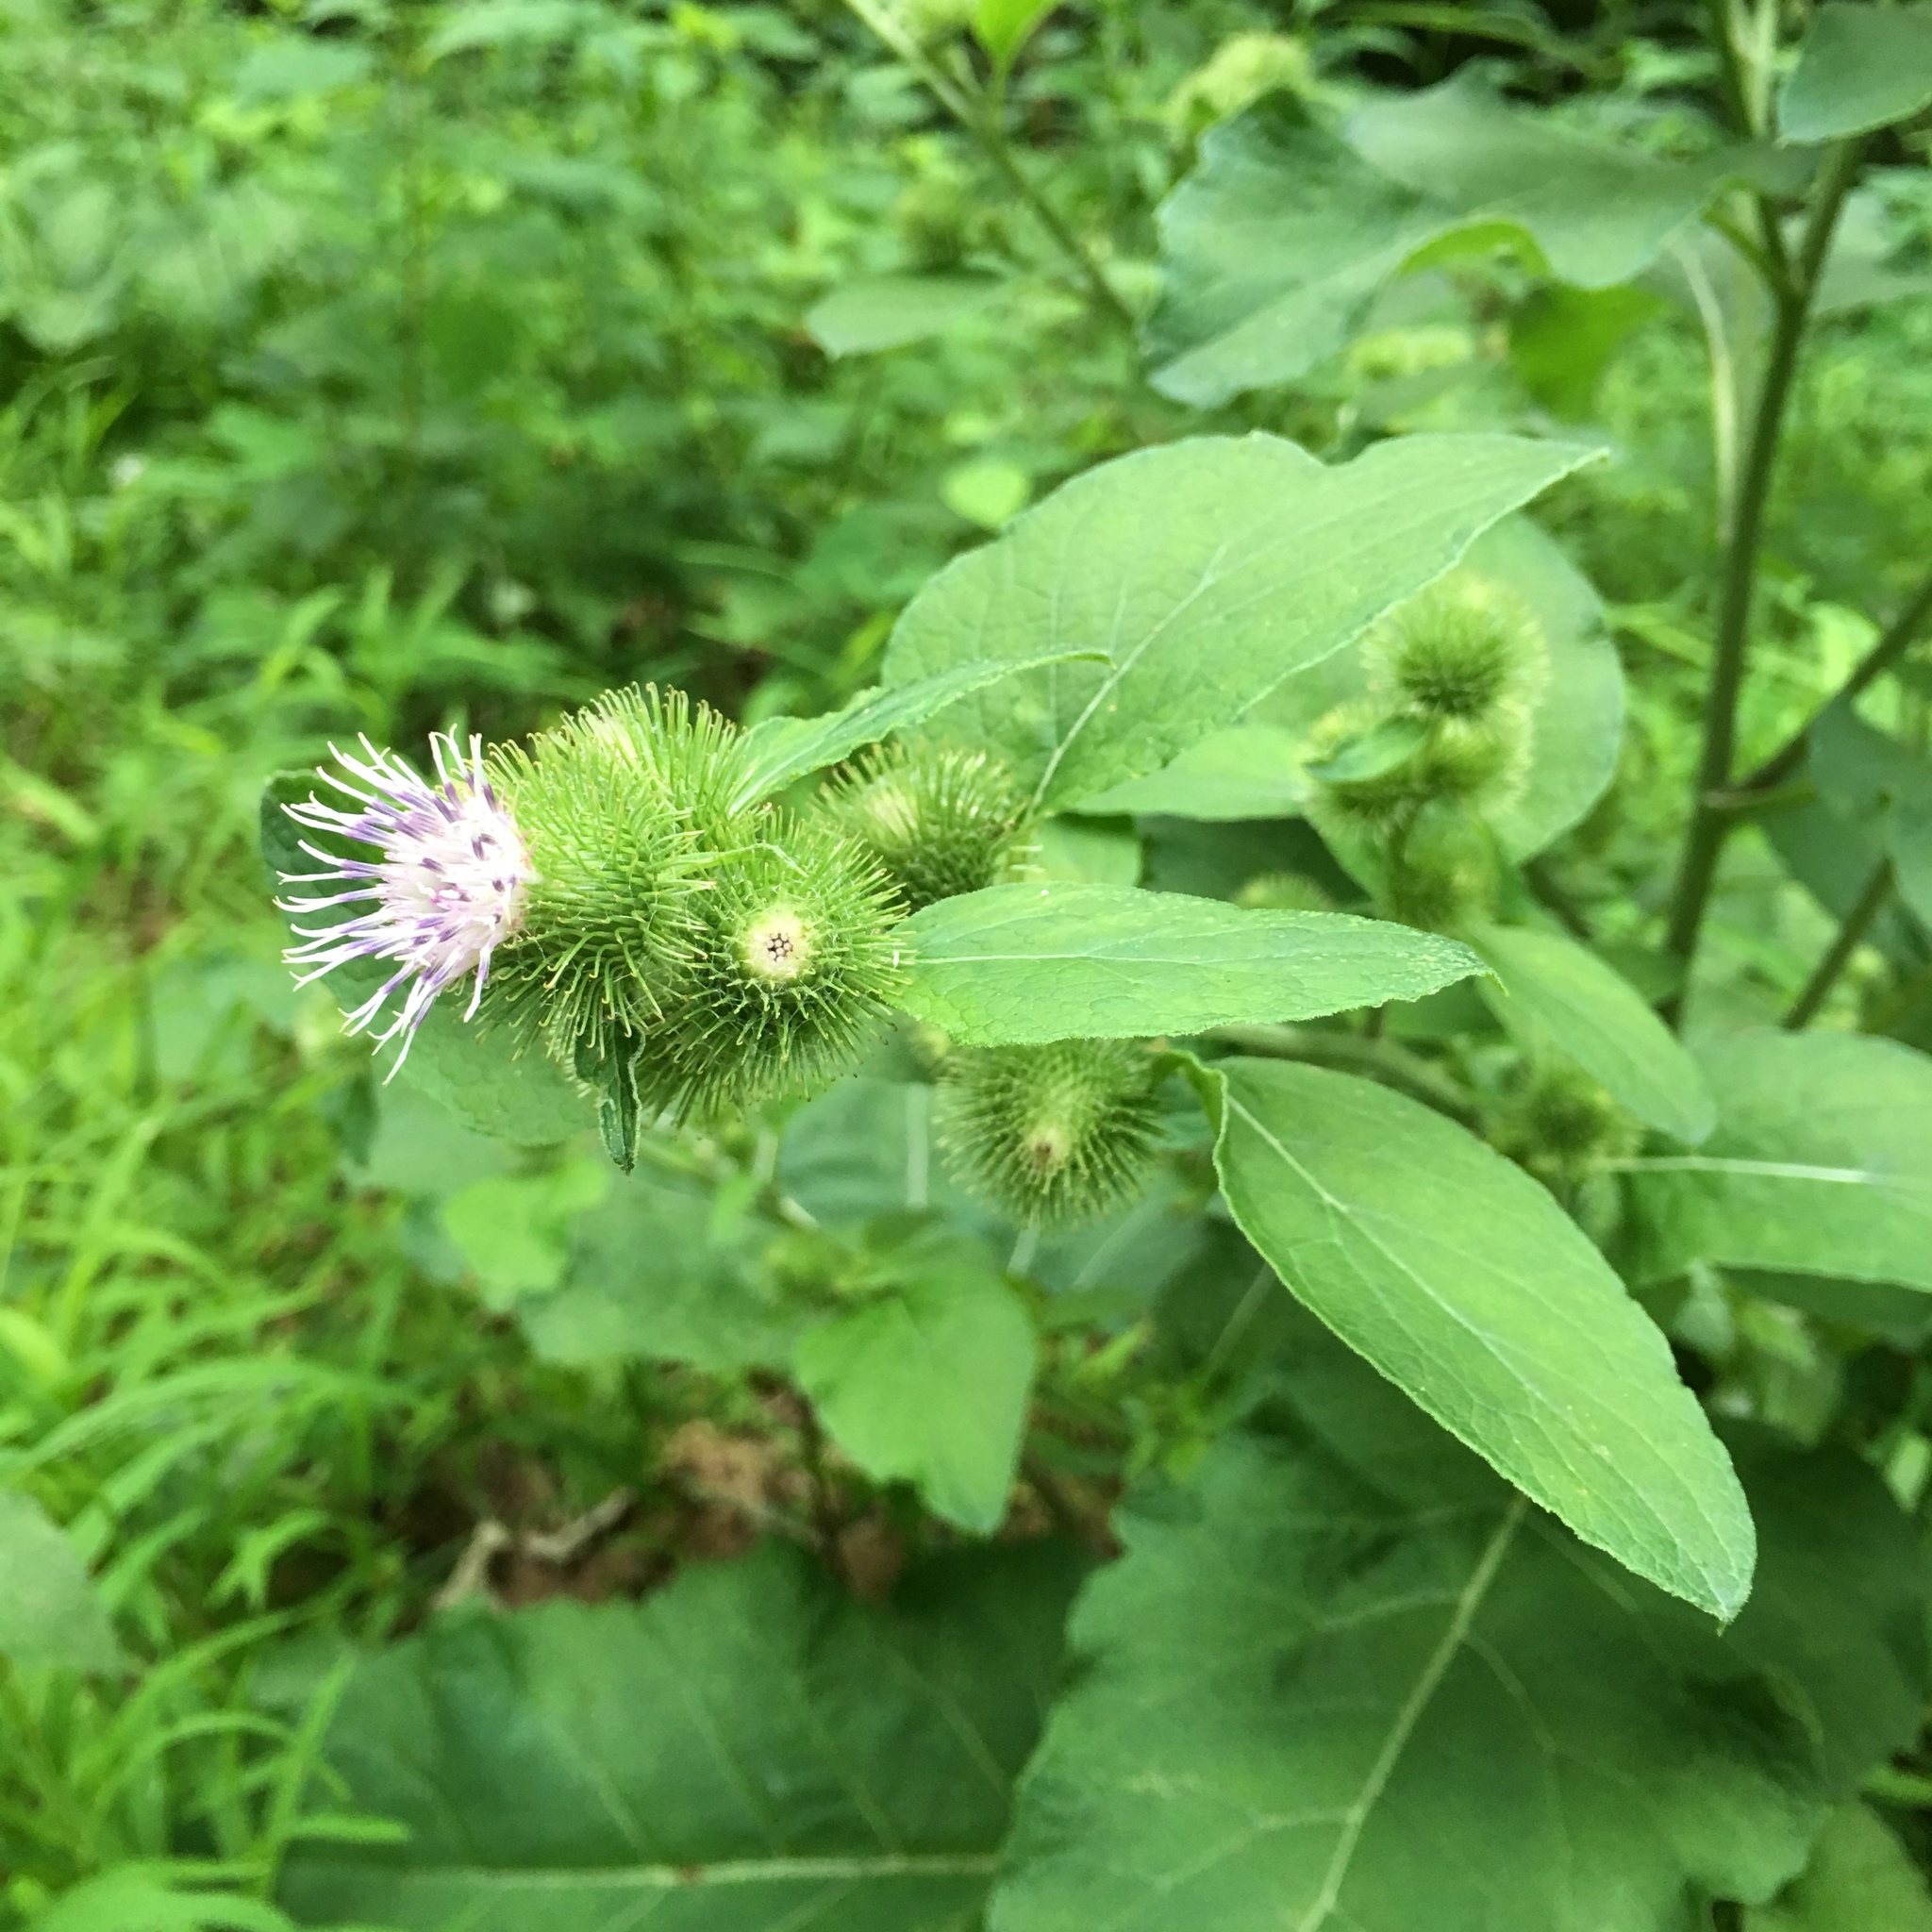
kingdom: Plantae
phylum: Tracheophyta
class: Magnoliopsida
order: Asterales
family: Asteraceae
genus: Arctium
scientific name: Arctium minus
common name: Lesser burdock
